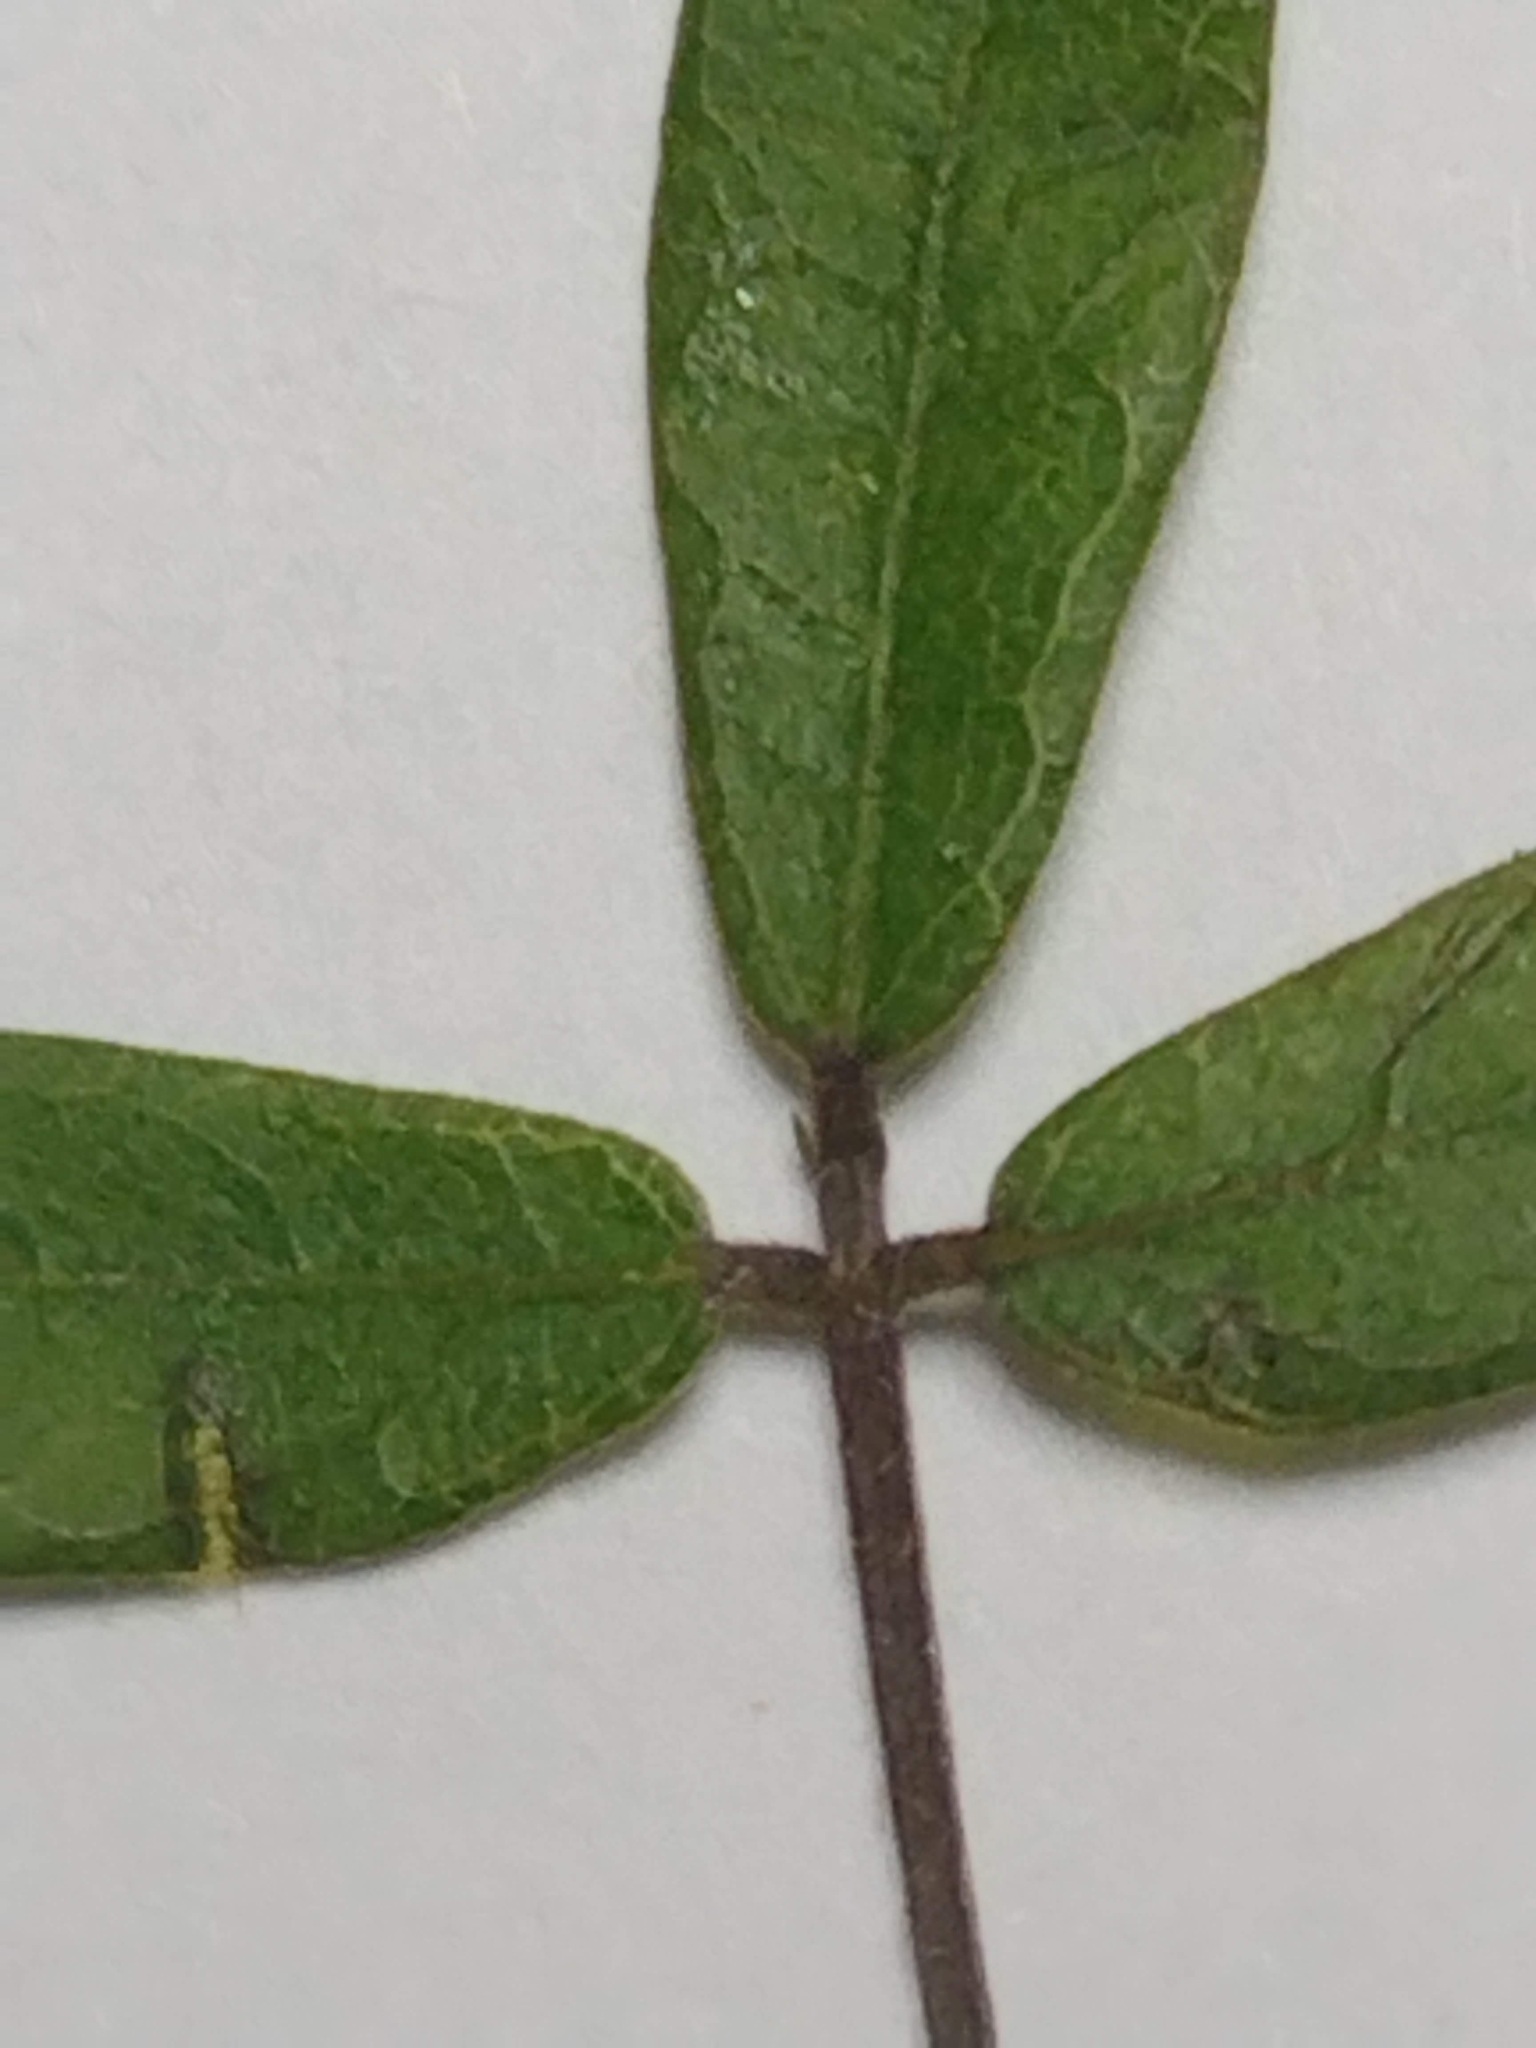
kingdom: Plantae
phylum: Tracheophyta
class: Magnoliopsida
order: Fabales
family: Fabaceae
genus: Glycine
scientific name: Glycine microphylla
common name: Small-leaf glycine
